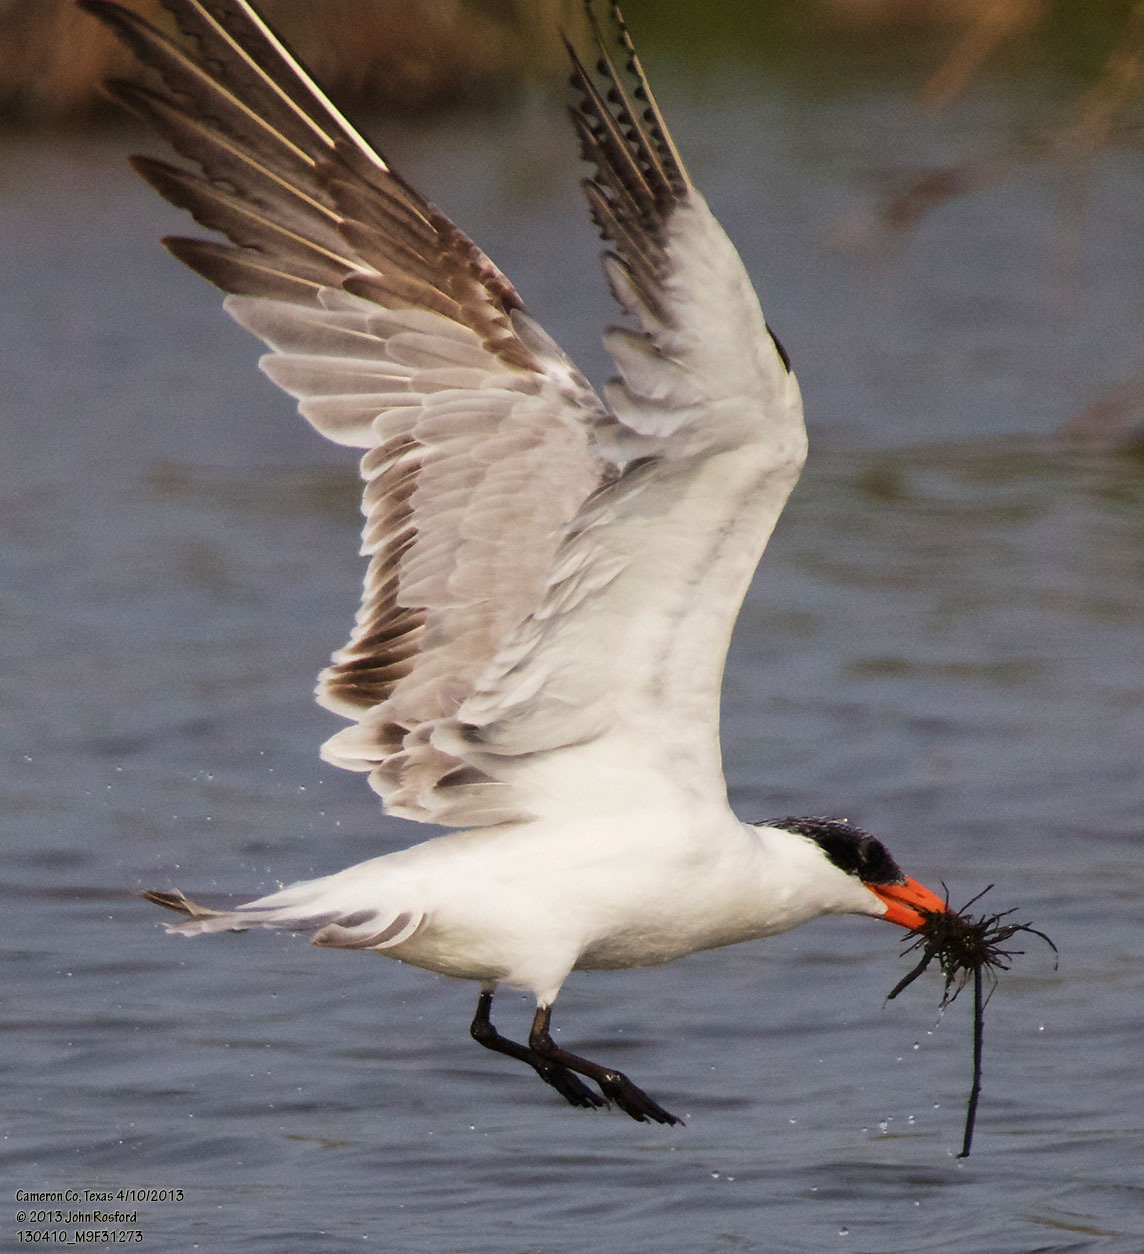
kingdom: Animalia
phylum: Chordata
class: Aves
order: Charadriiformes
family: Laridae
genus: Hydroprogne
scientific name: Hydroprogne caspia
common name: Caspian tern
